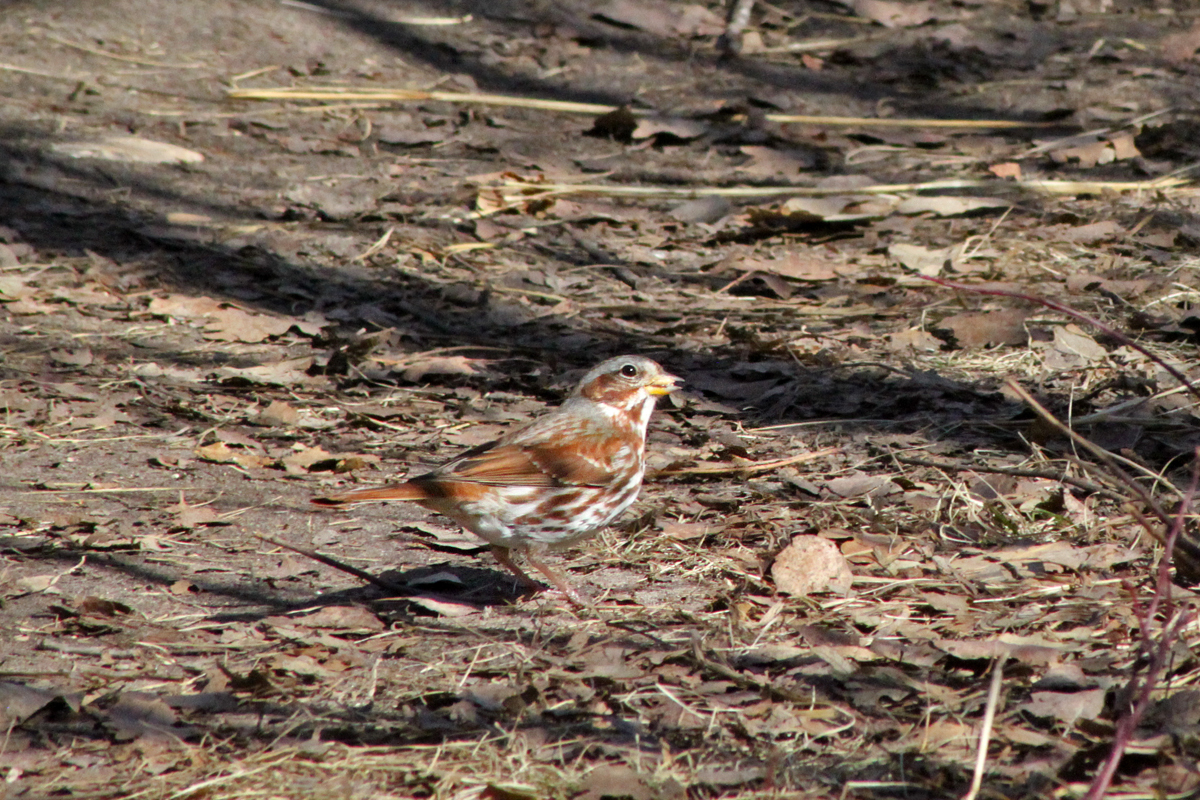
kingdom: Animalia
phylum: Chordata
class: Aves
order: Passeriformes
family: Passerellidae
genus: Passerella
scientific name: Passerella iliaca
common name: Fox sparrow
